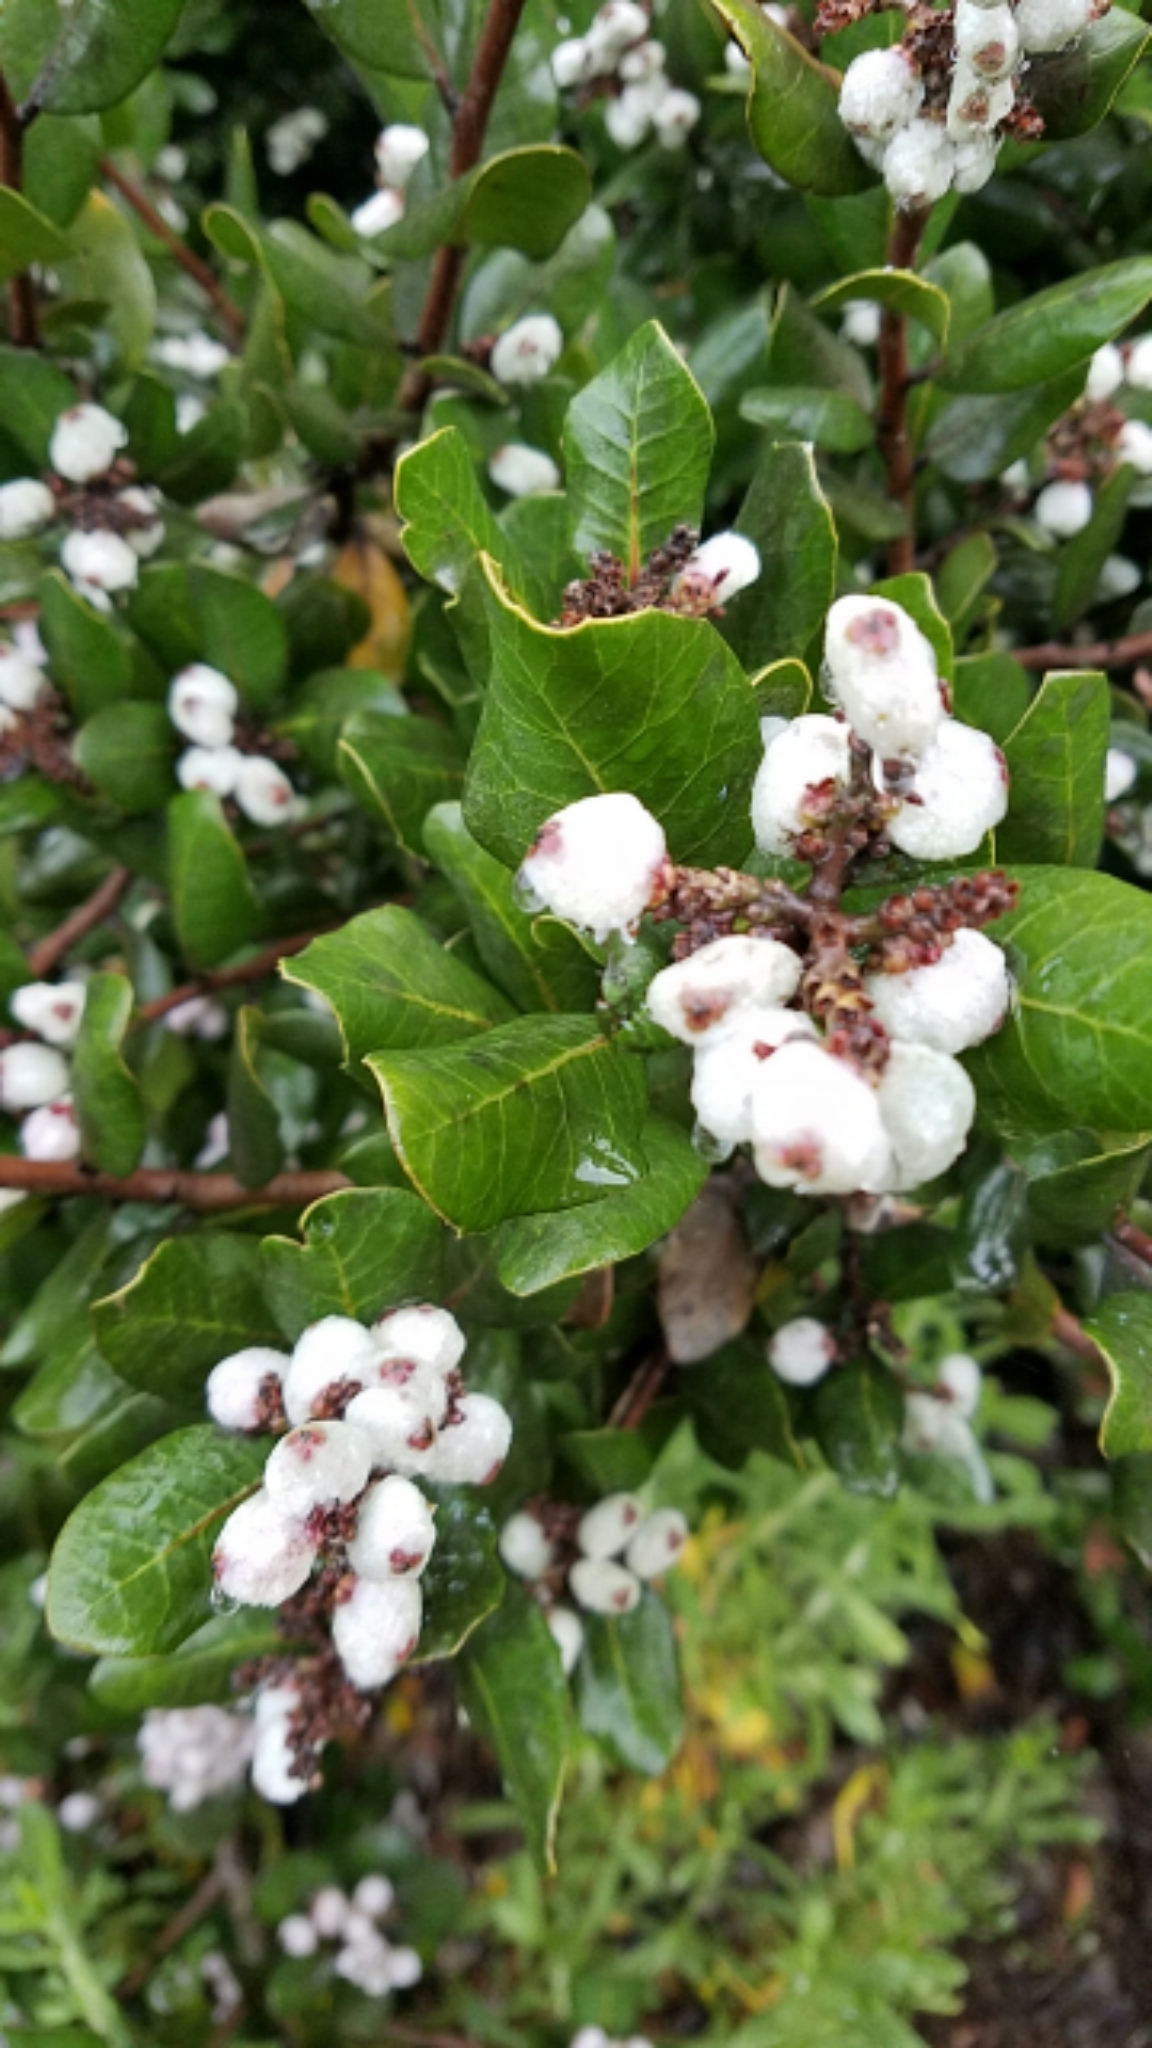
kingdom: Plantae
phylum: Tracheophyta
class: Magnoliopsida
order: Sapindales
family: Anacardiaceae
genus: Rhus
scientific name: Rhus integrifolia
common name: Lemonade sumac
